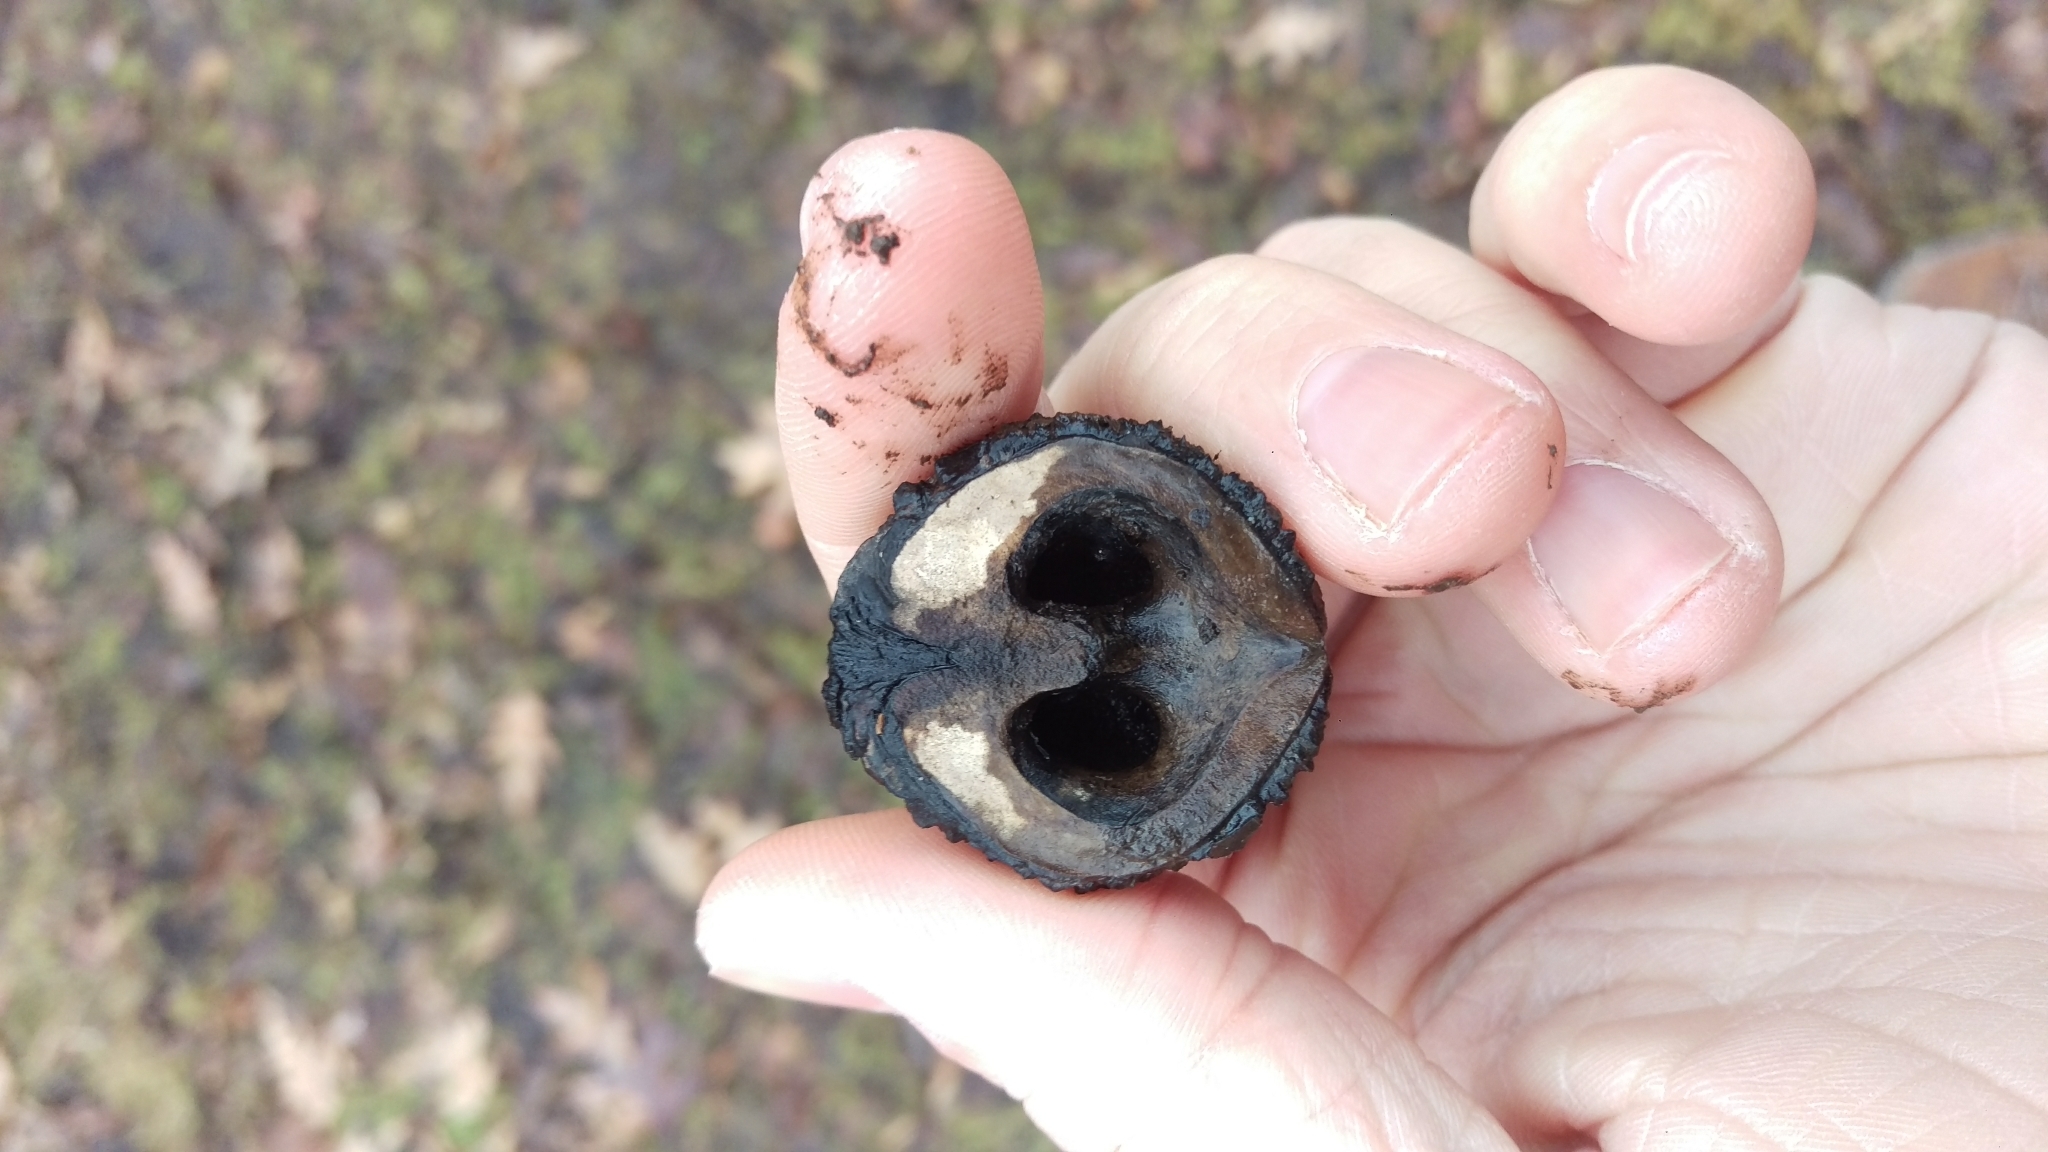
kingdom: Plantae
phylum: Tracheophyta
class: Magnoliopsida
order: Fagales
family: Juglandaceae
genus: Juglans
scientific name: Juglans nigra
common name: Black walnut
